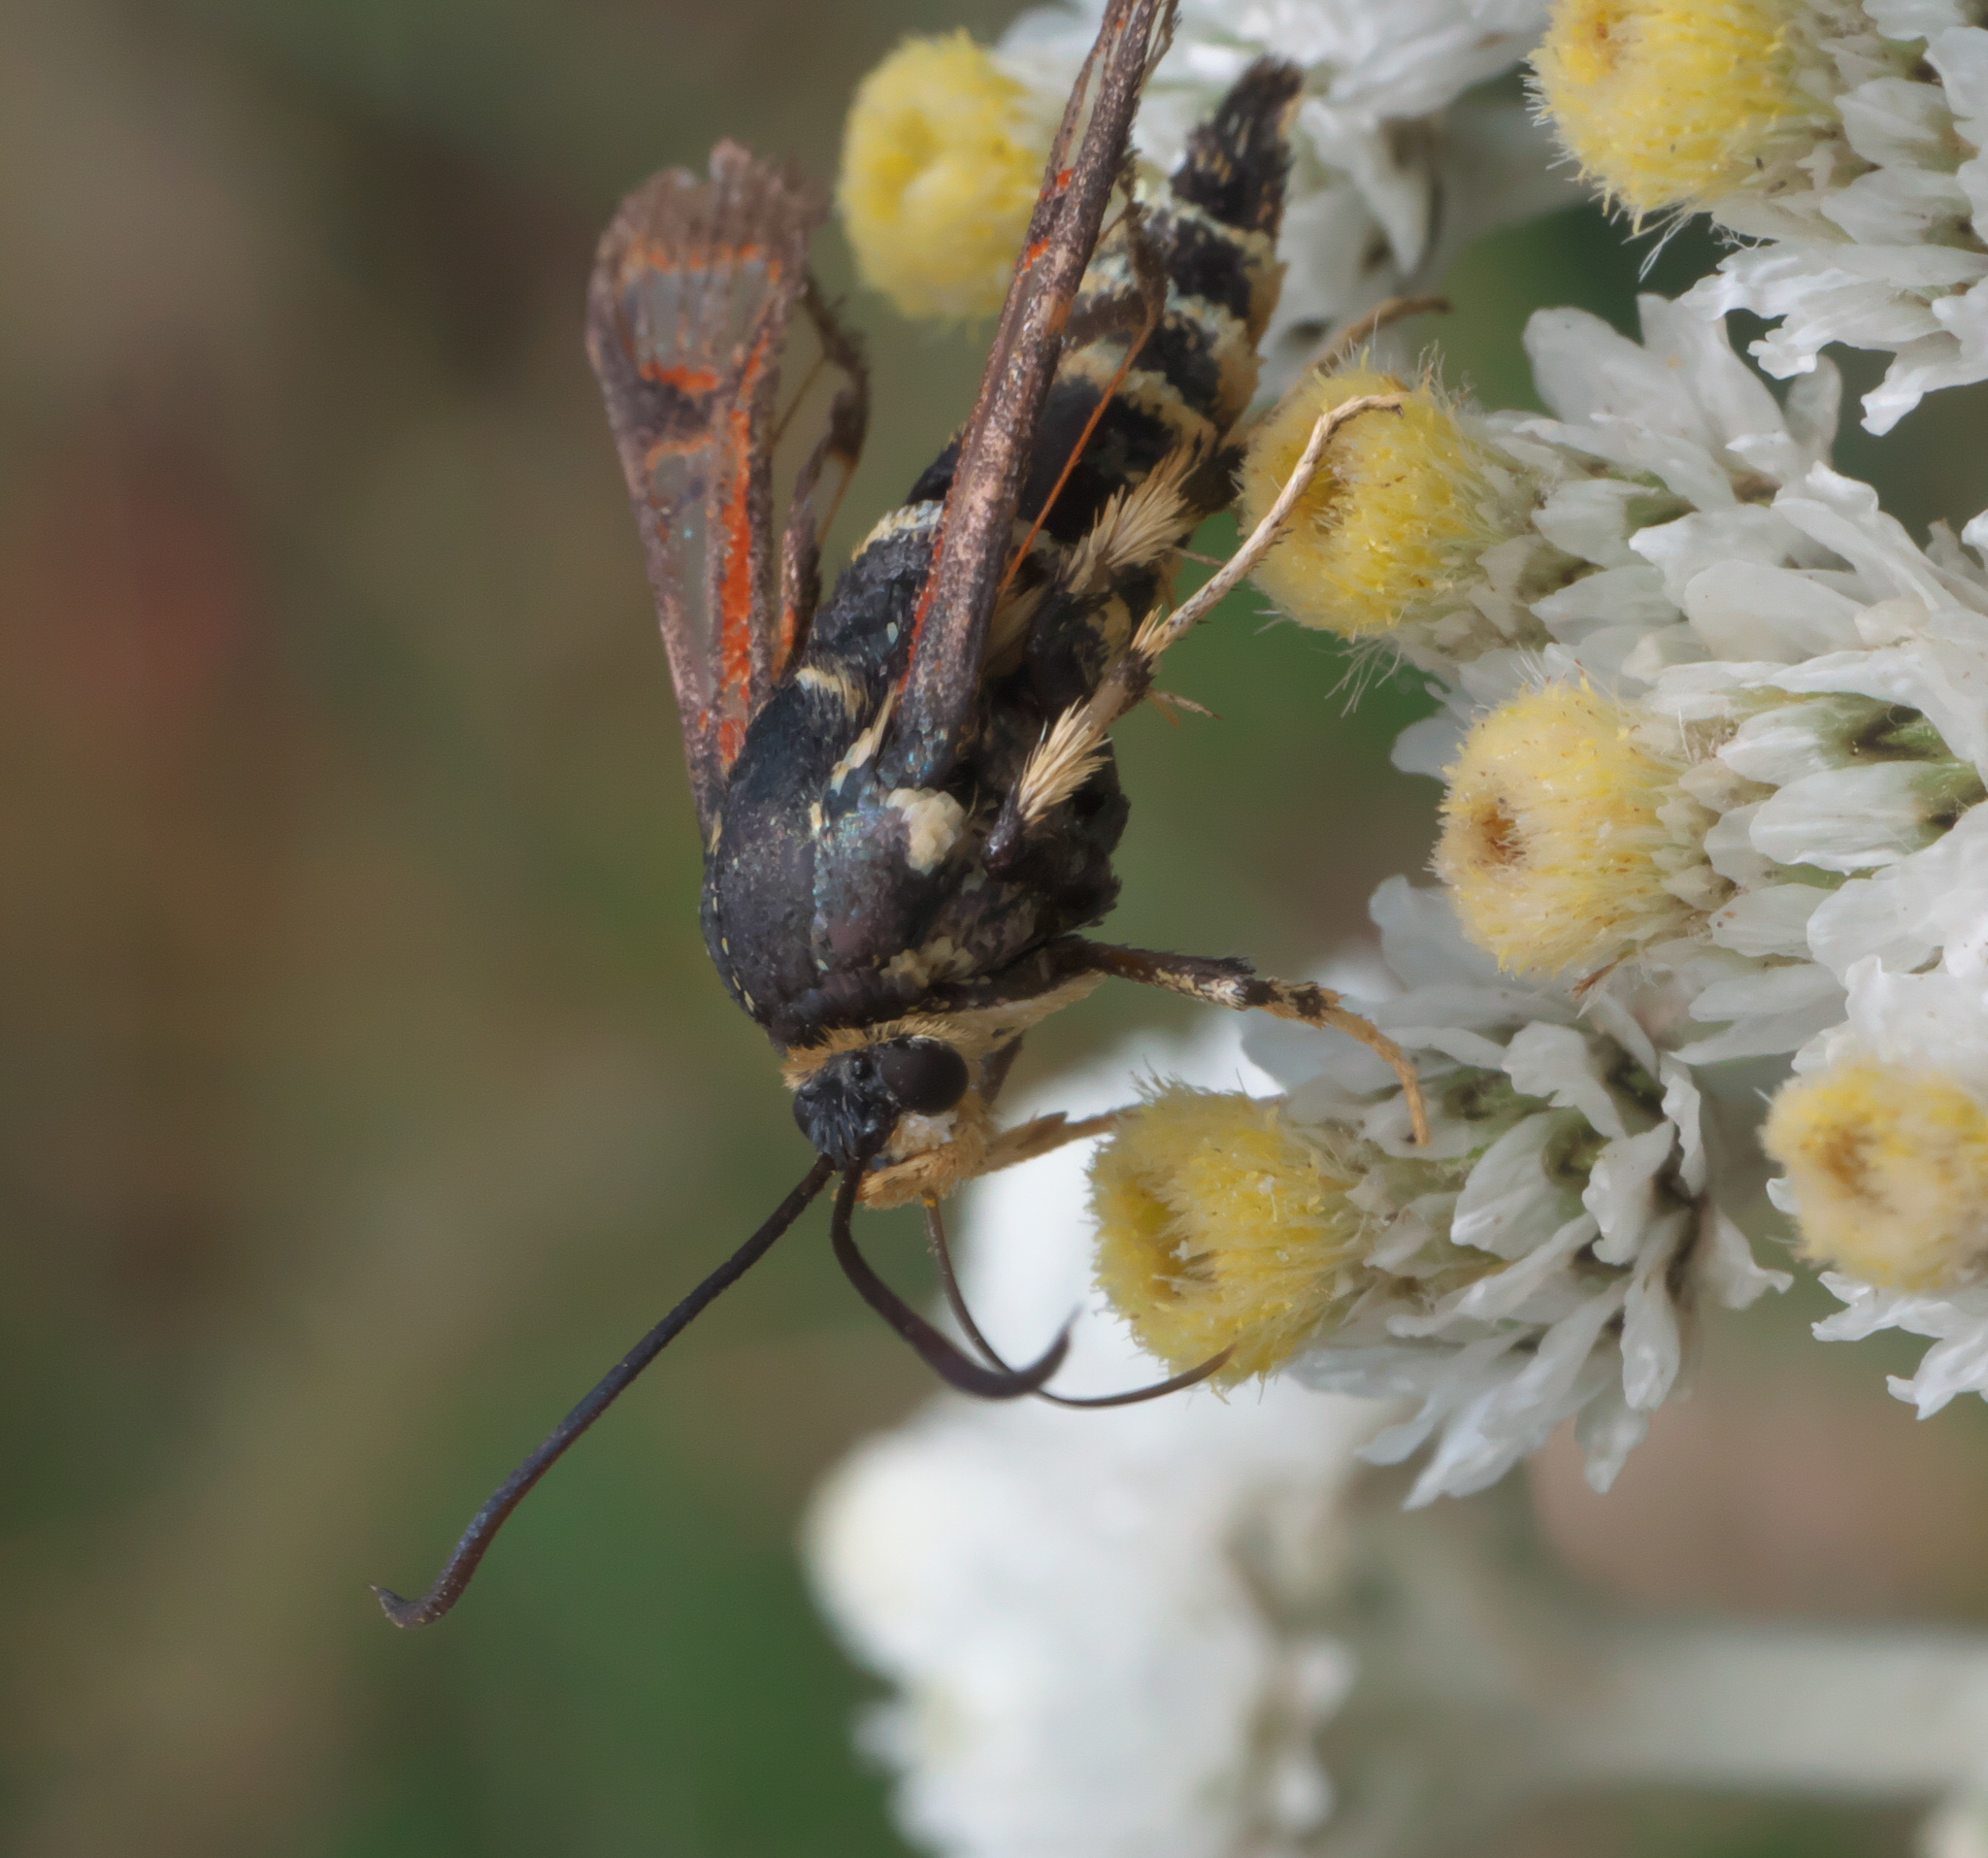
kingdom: Animalia
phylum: Arthropoda
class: Insecta
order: Lepidoptera
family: Sesiidae
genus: Albuna
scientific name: Albuna pyramidalis
